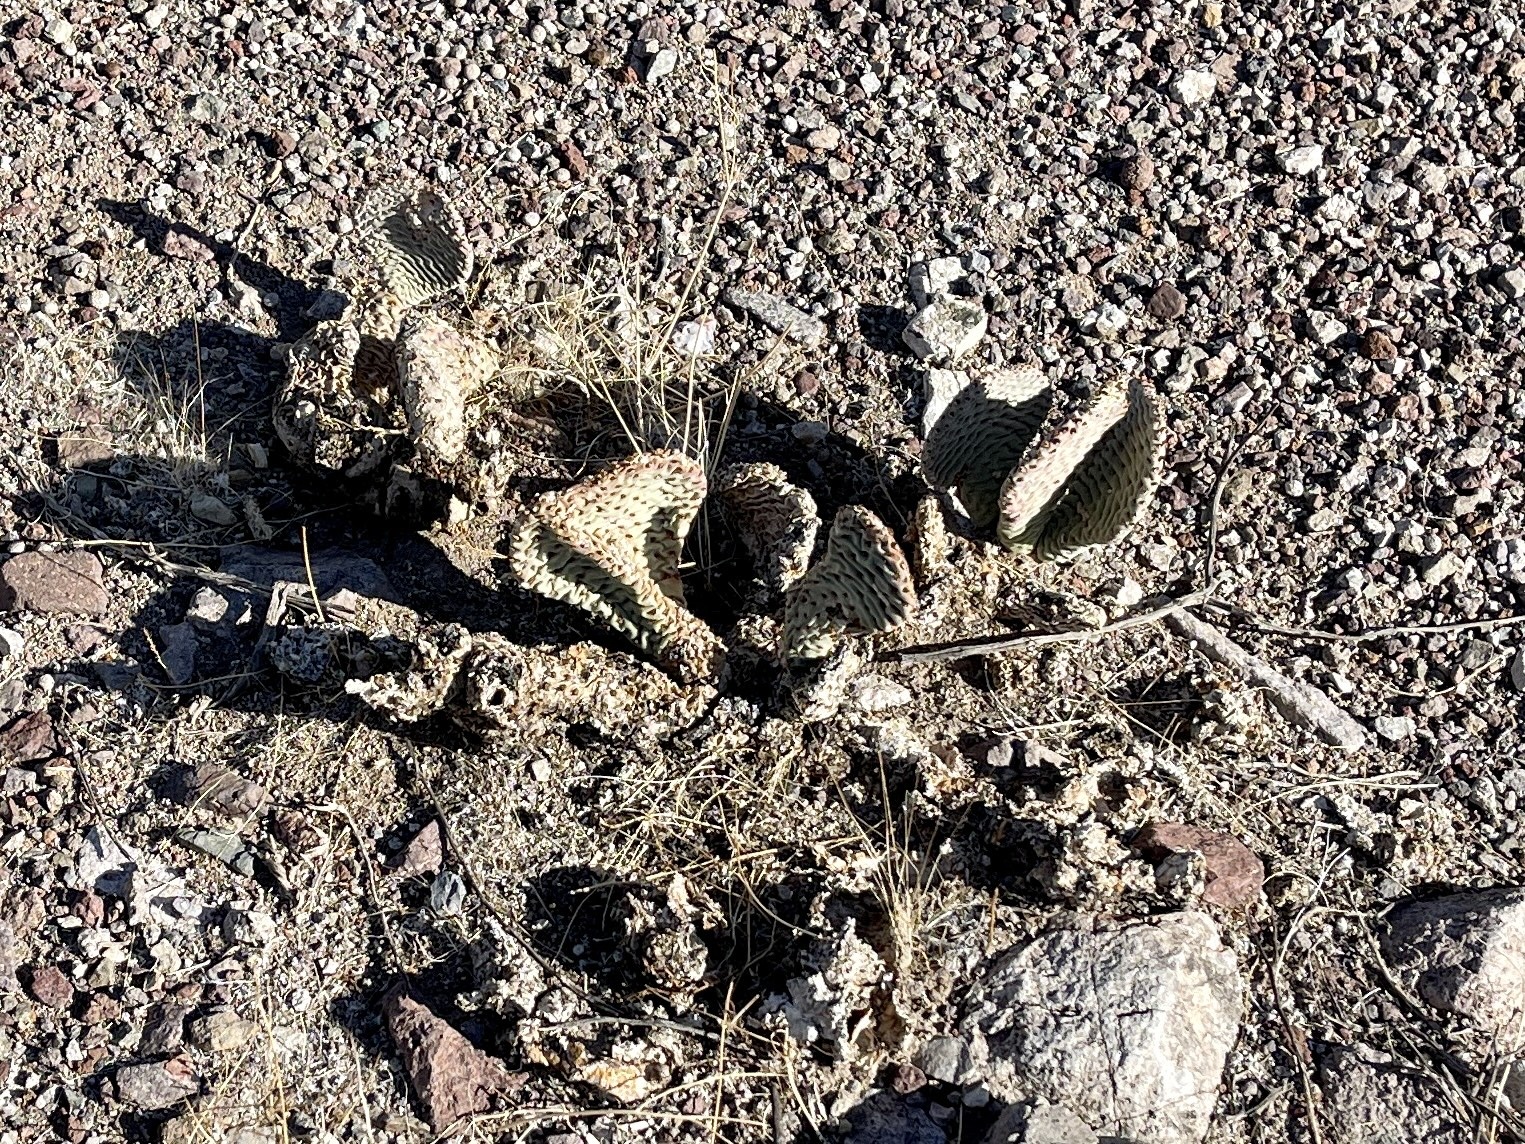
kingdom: Plantae
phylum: Tracheophyta
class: Magnoliopsida
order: Caryophyllales
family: Cactaceae
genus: Opuntia
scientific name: Opuntia basilaris
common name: Beavertail prickly-pear
